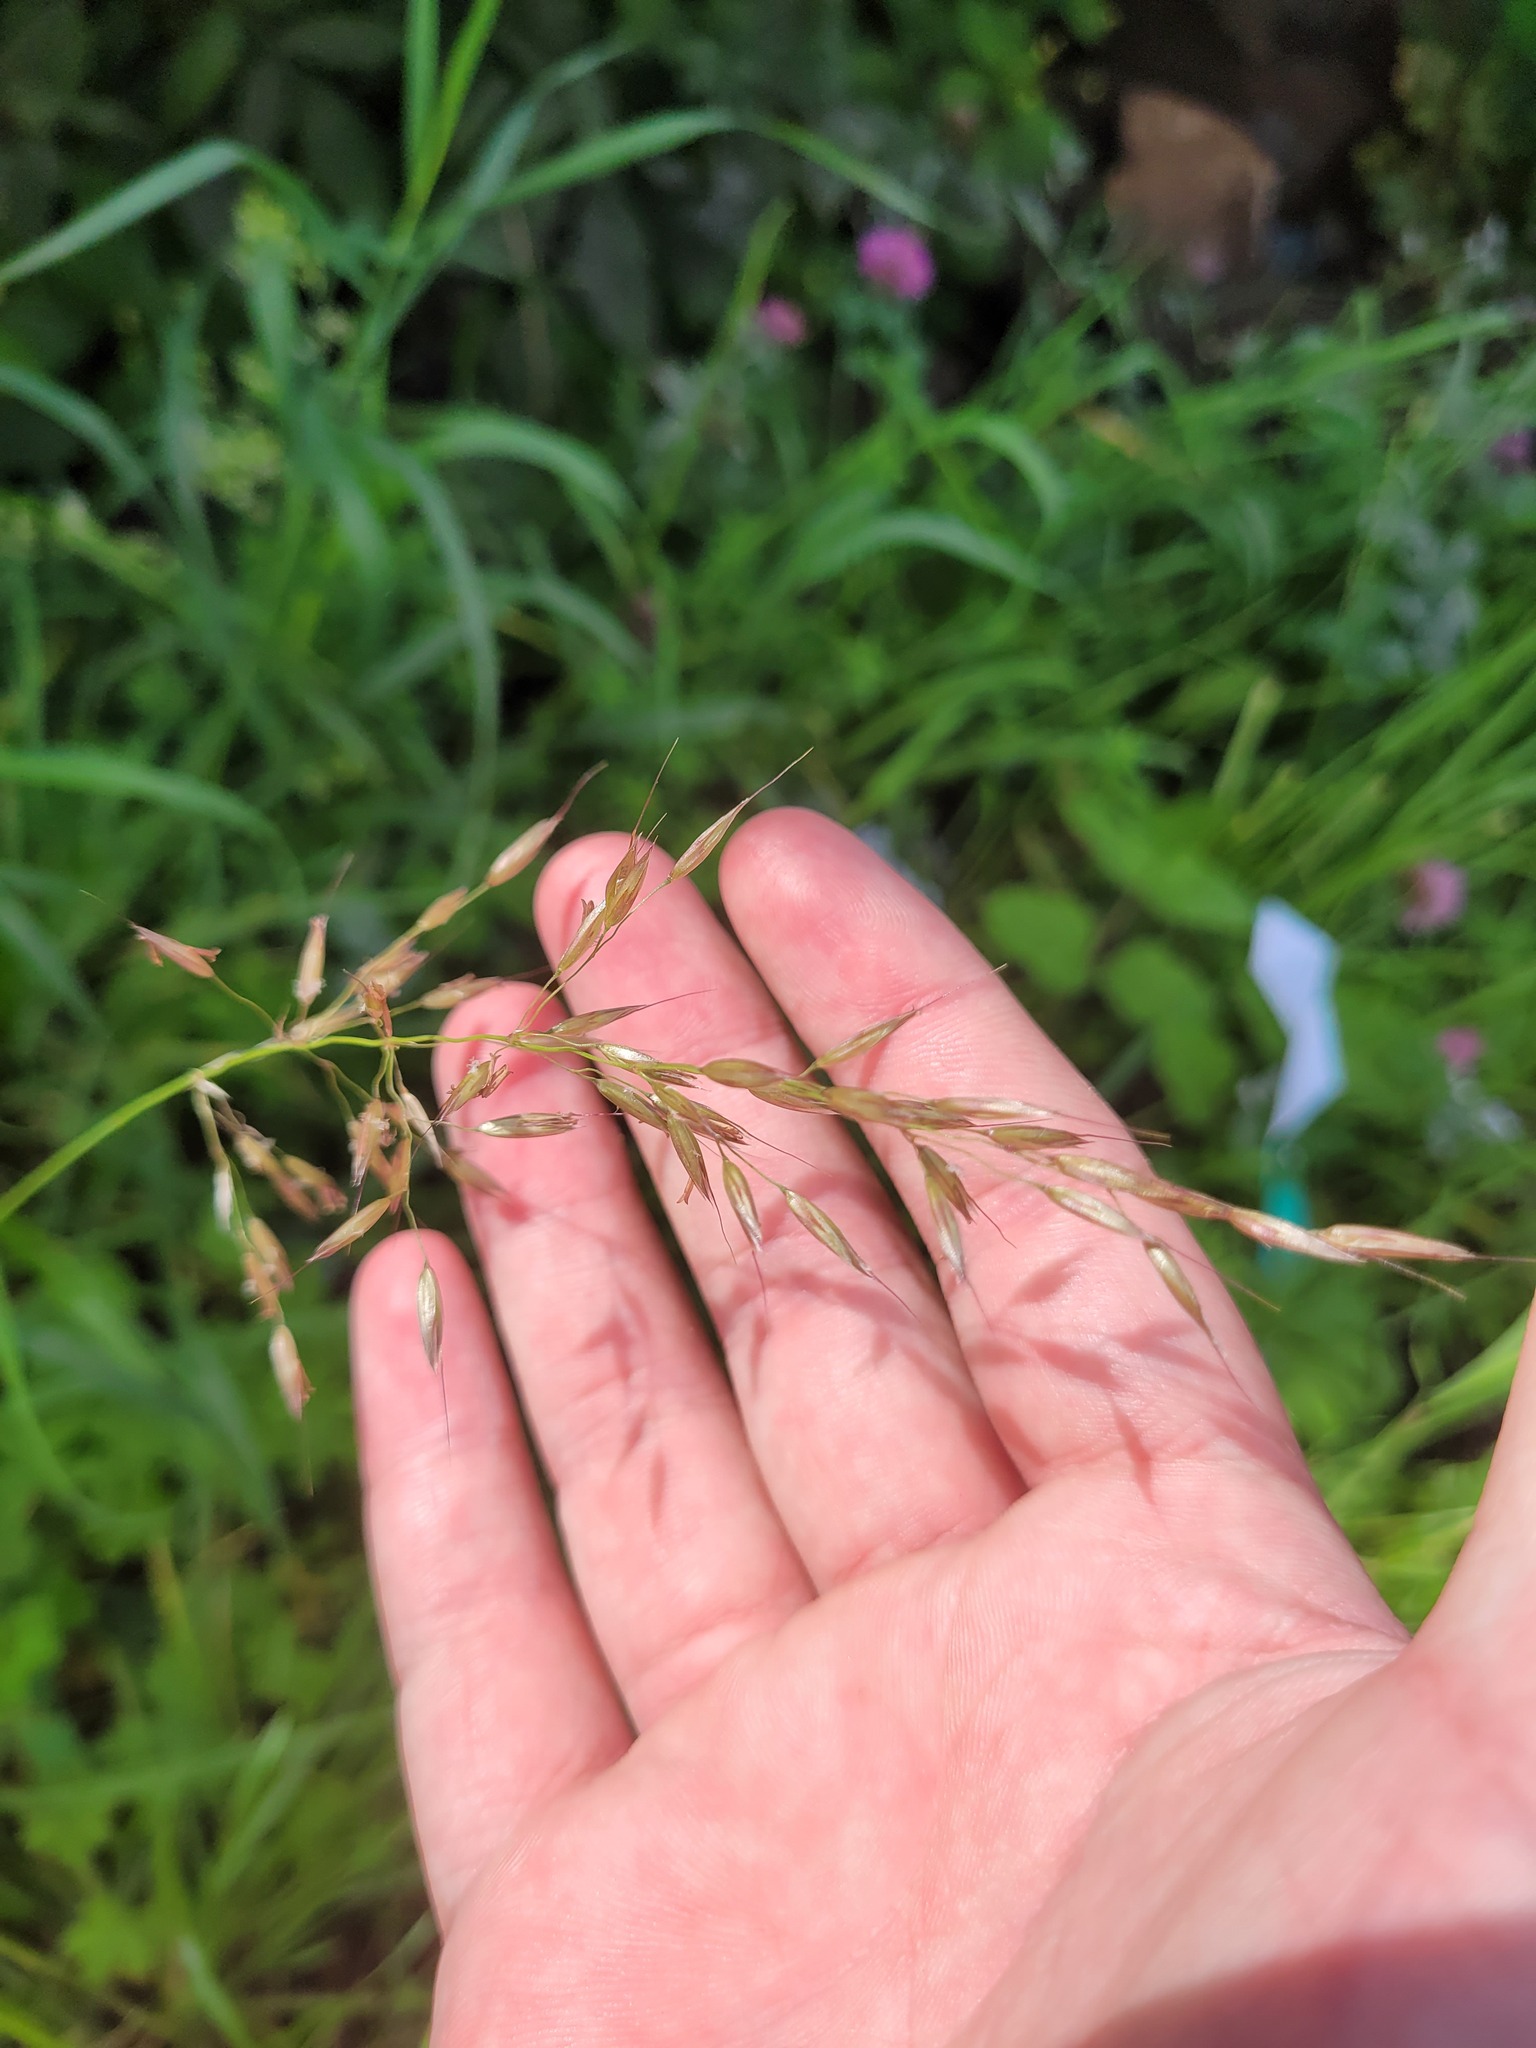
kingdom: Plantae
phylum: Tracheophyta
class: Liliopsida
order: Poales
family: Poaceae
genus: Arrhenatherum
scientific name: Arrhenatherum elatius
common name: Tall oatgrass
